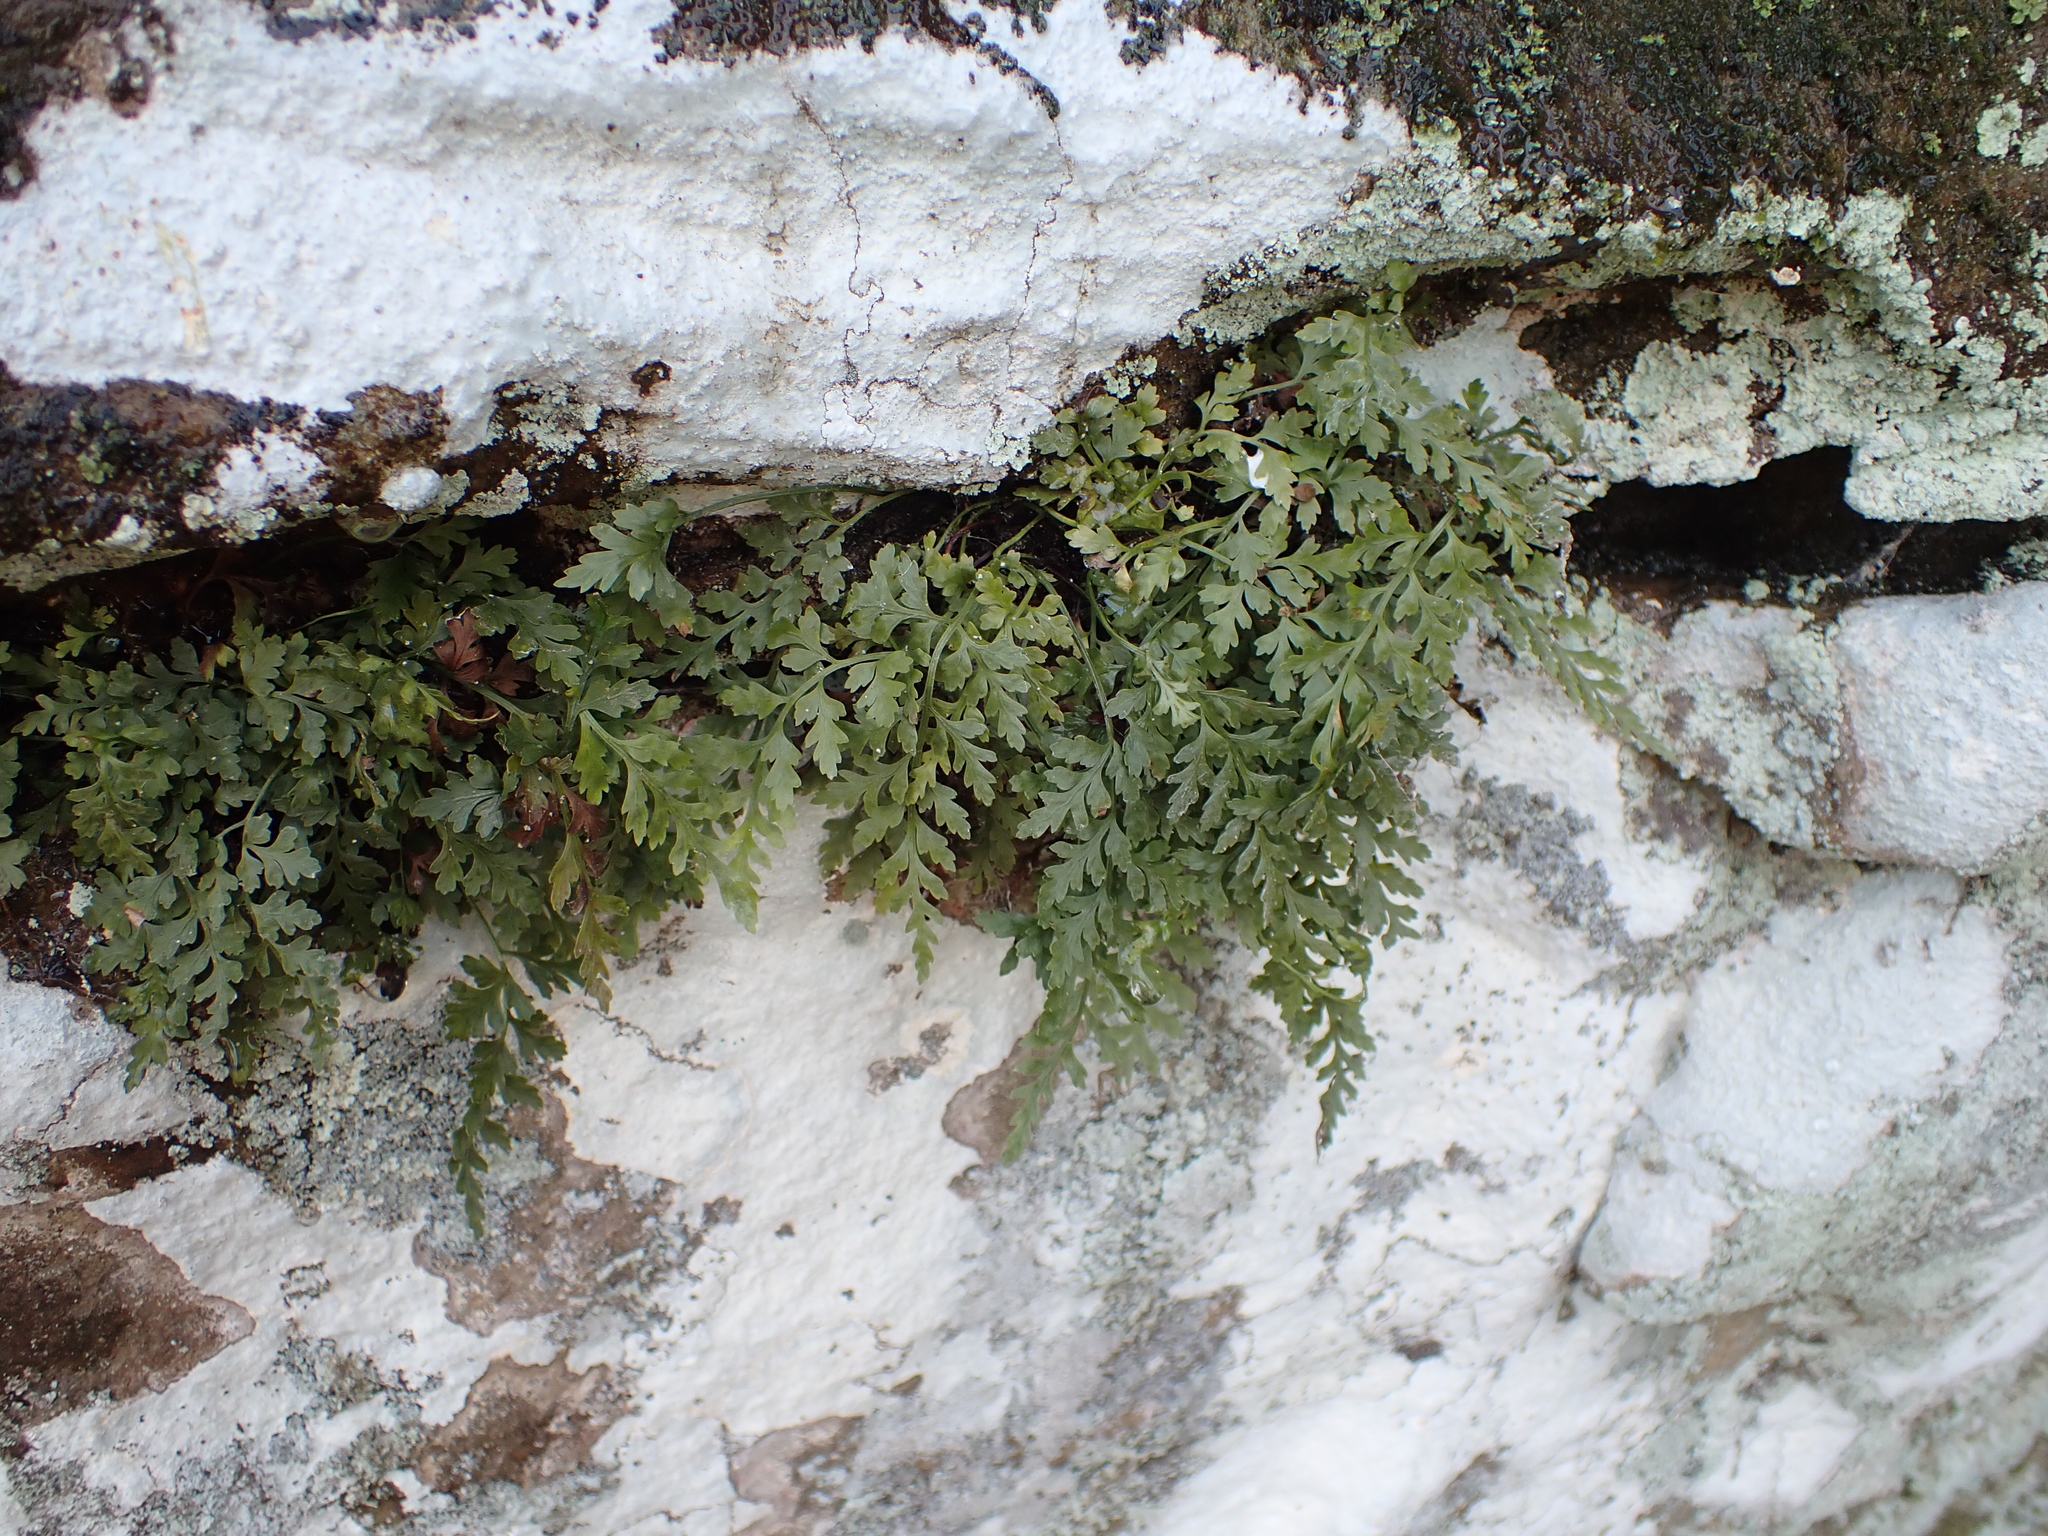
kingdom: Plantae
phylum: Tracheophyta
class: Polypodiopsida
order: Polypodiales
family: Aspleniaceae
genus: Asplenium
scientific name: Asplenium montanum
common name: Mountain spleenwort
